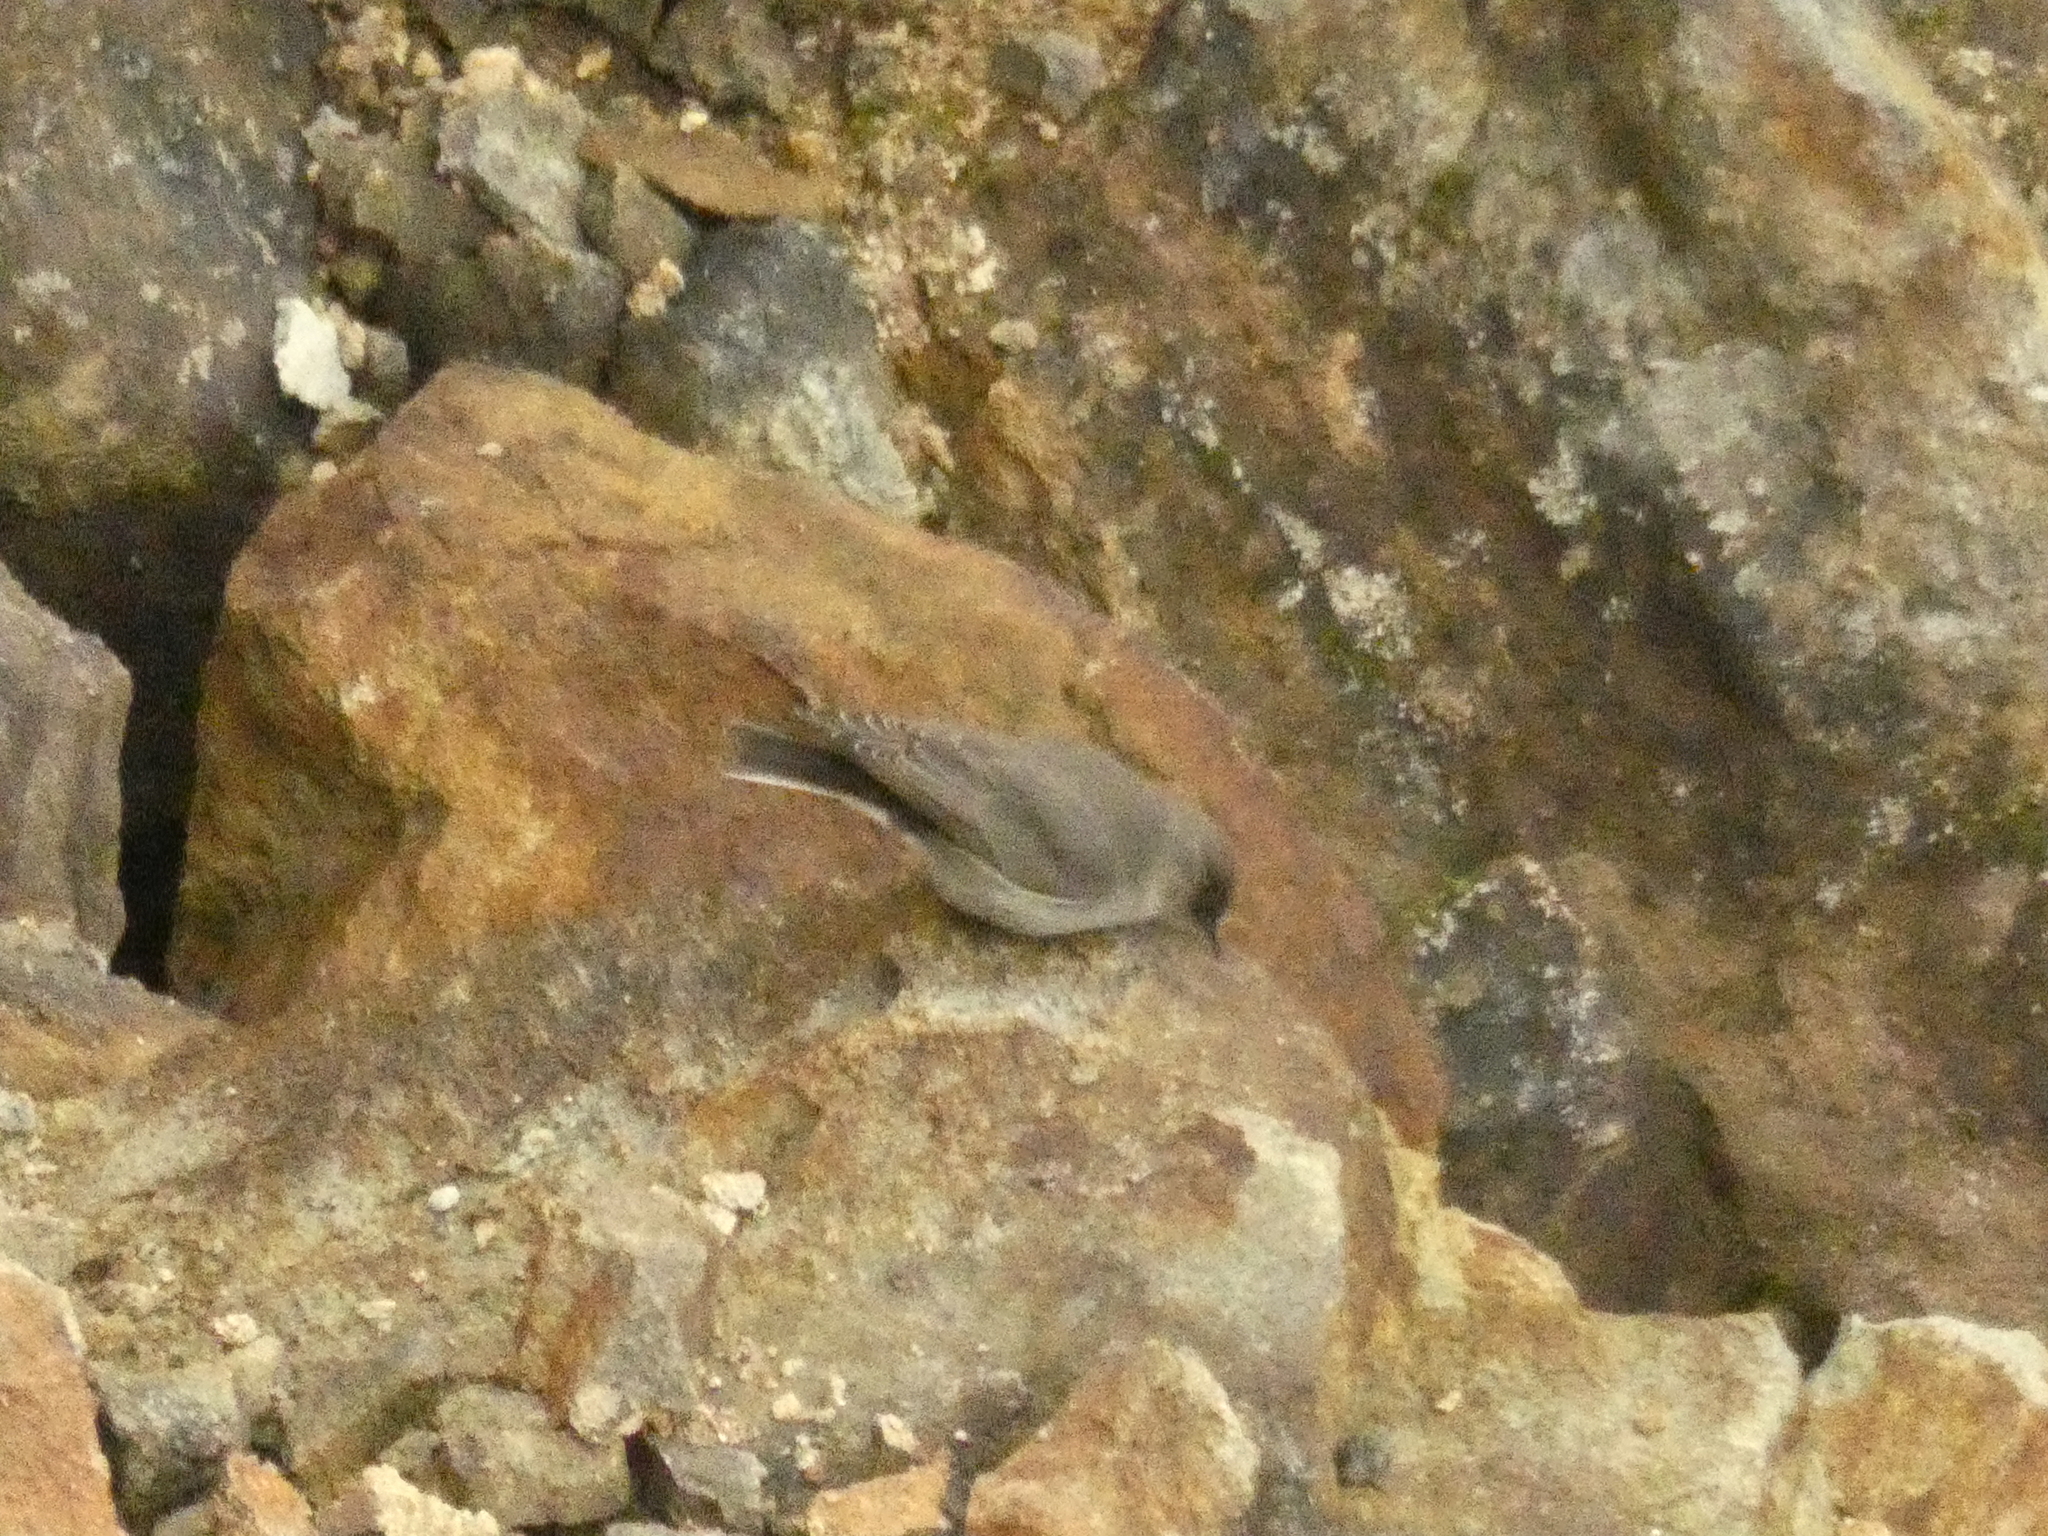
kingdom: Animalia
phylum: Chordata
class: Aves
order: Passeriformes
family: Tyrannidae
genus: Muscisaxicola
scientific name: Muscisaxicola maclovianus
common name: Dark-faced ground tyrant
